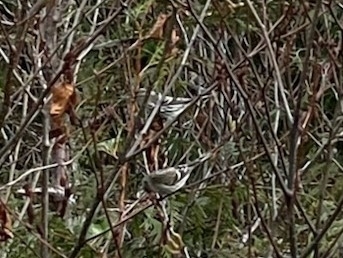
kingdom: Animalia
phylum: Chordata
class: Aves
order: Passeriformes
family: Fringillidae
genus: Acanthis
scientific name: Acanthis flammea
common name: Common redpoll
